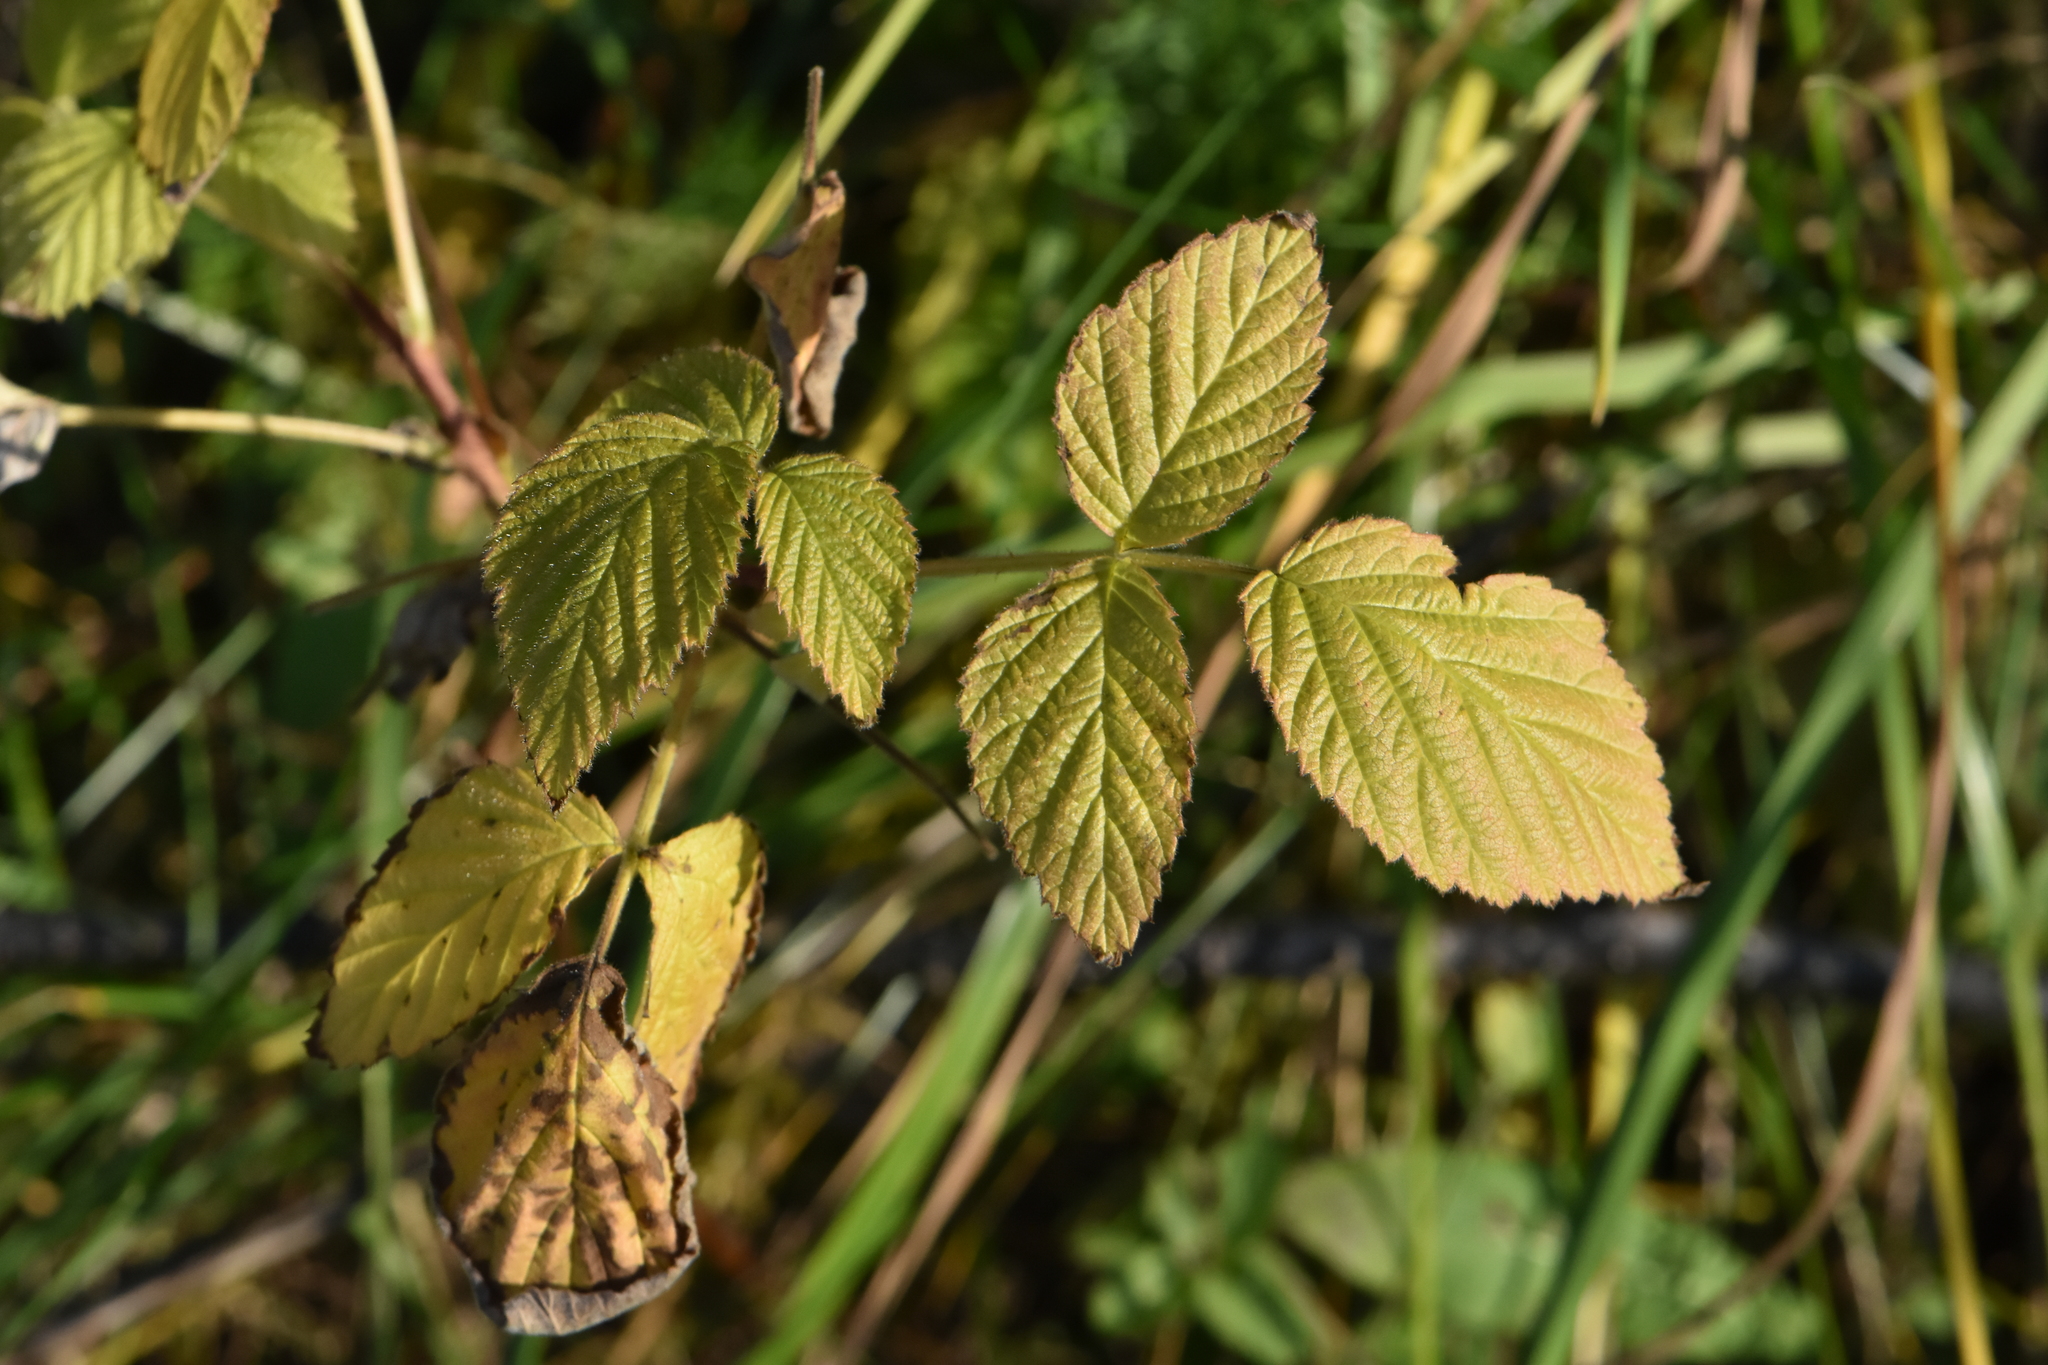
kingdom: Plantae
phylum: Tracheophyta
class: Magnoliopsida
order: Rosales
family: Rosaceae
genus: Rubus
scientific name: Rubus idaeus
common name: Raspberry
